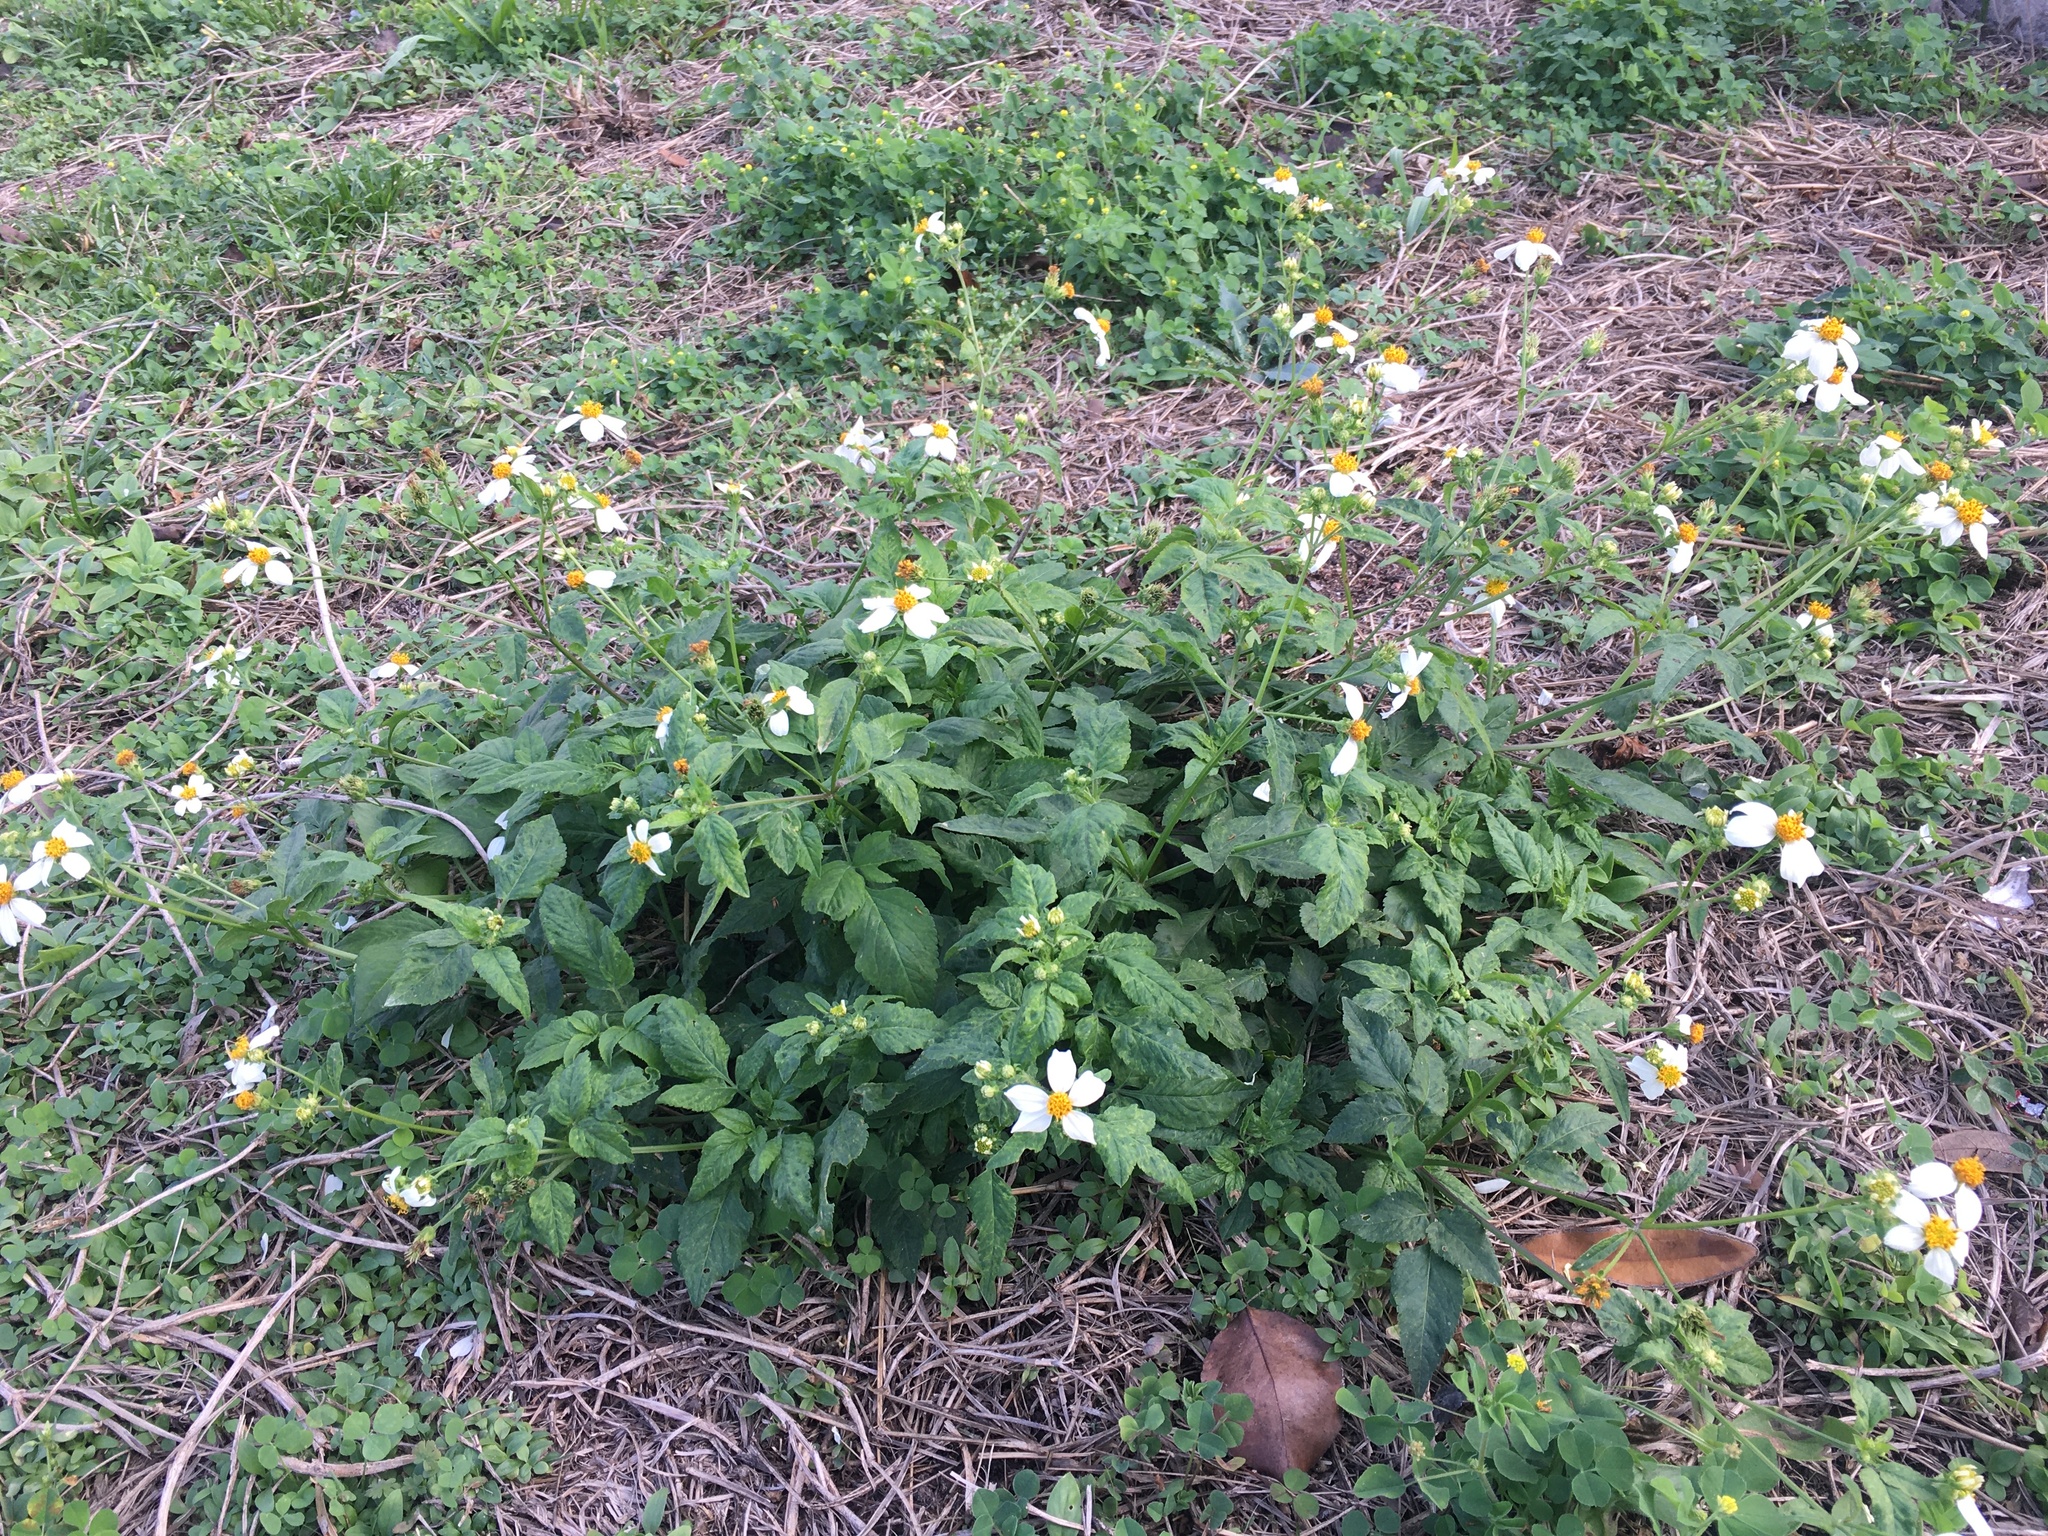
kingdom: Plantae
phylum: Tracheophyta
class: Magnoliopsida
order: Asterales
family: Asteraceae
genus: Bidens
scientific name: Bidens alba
